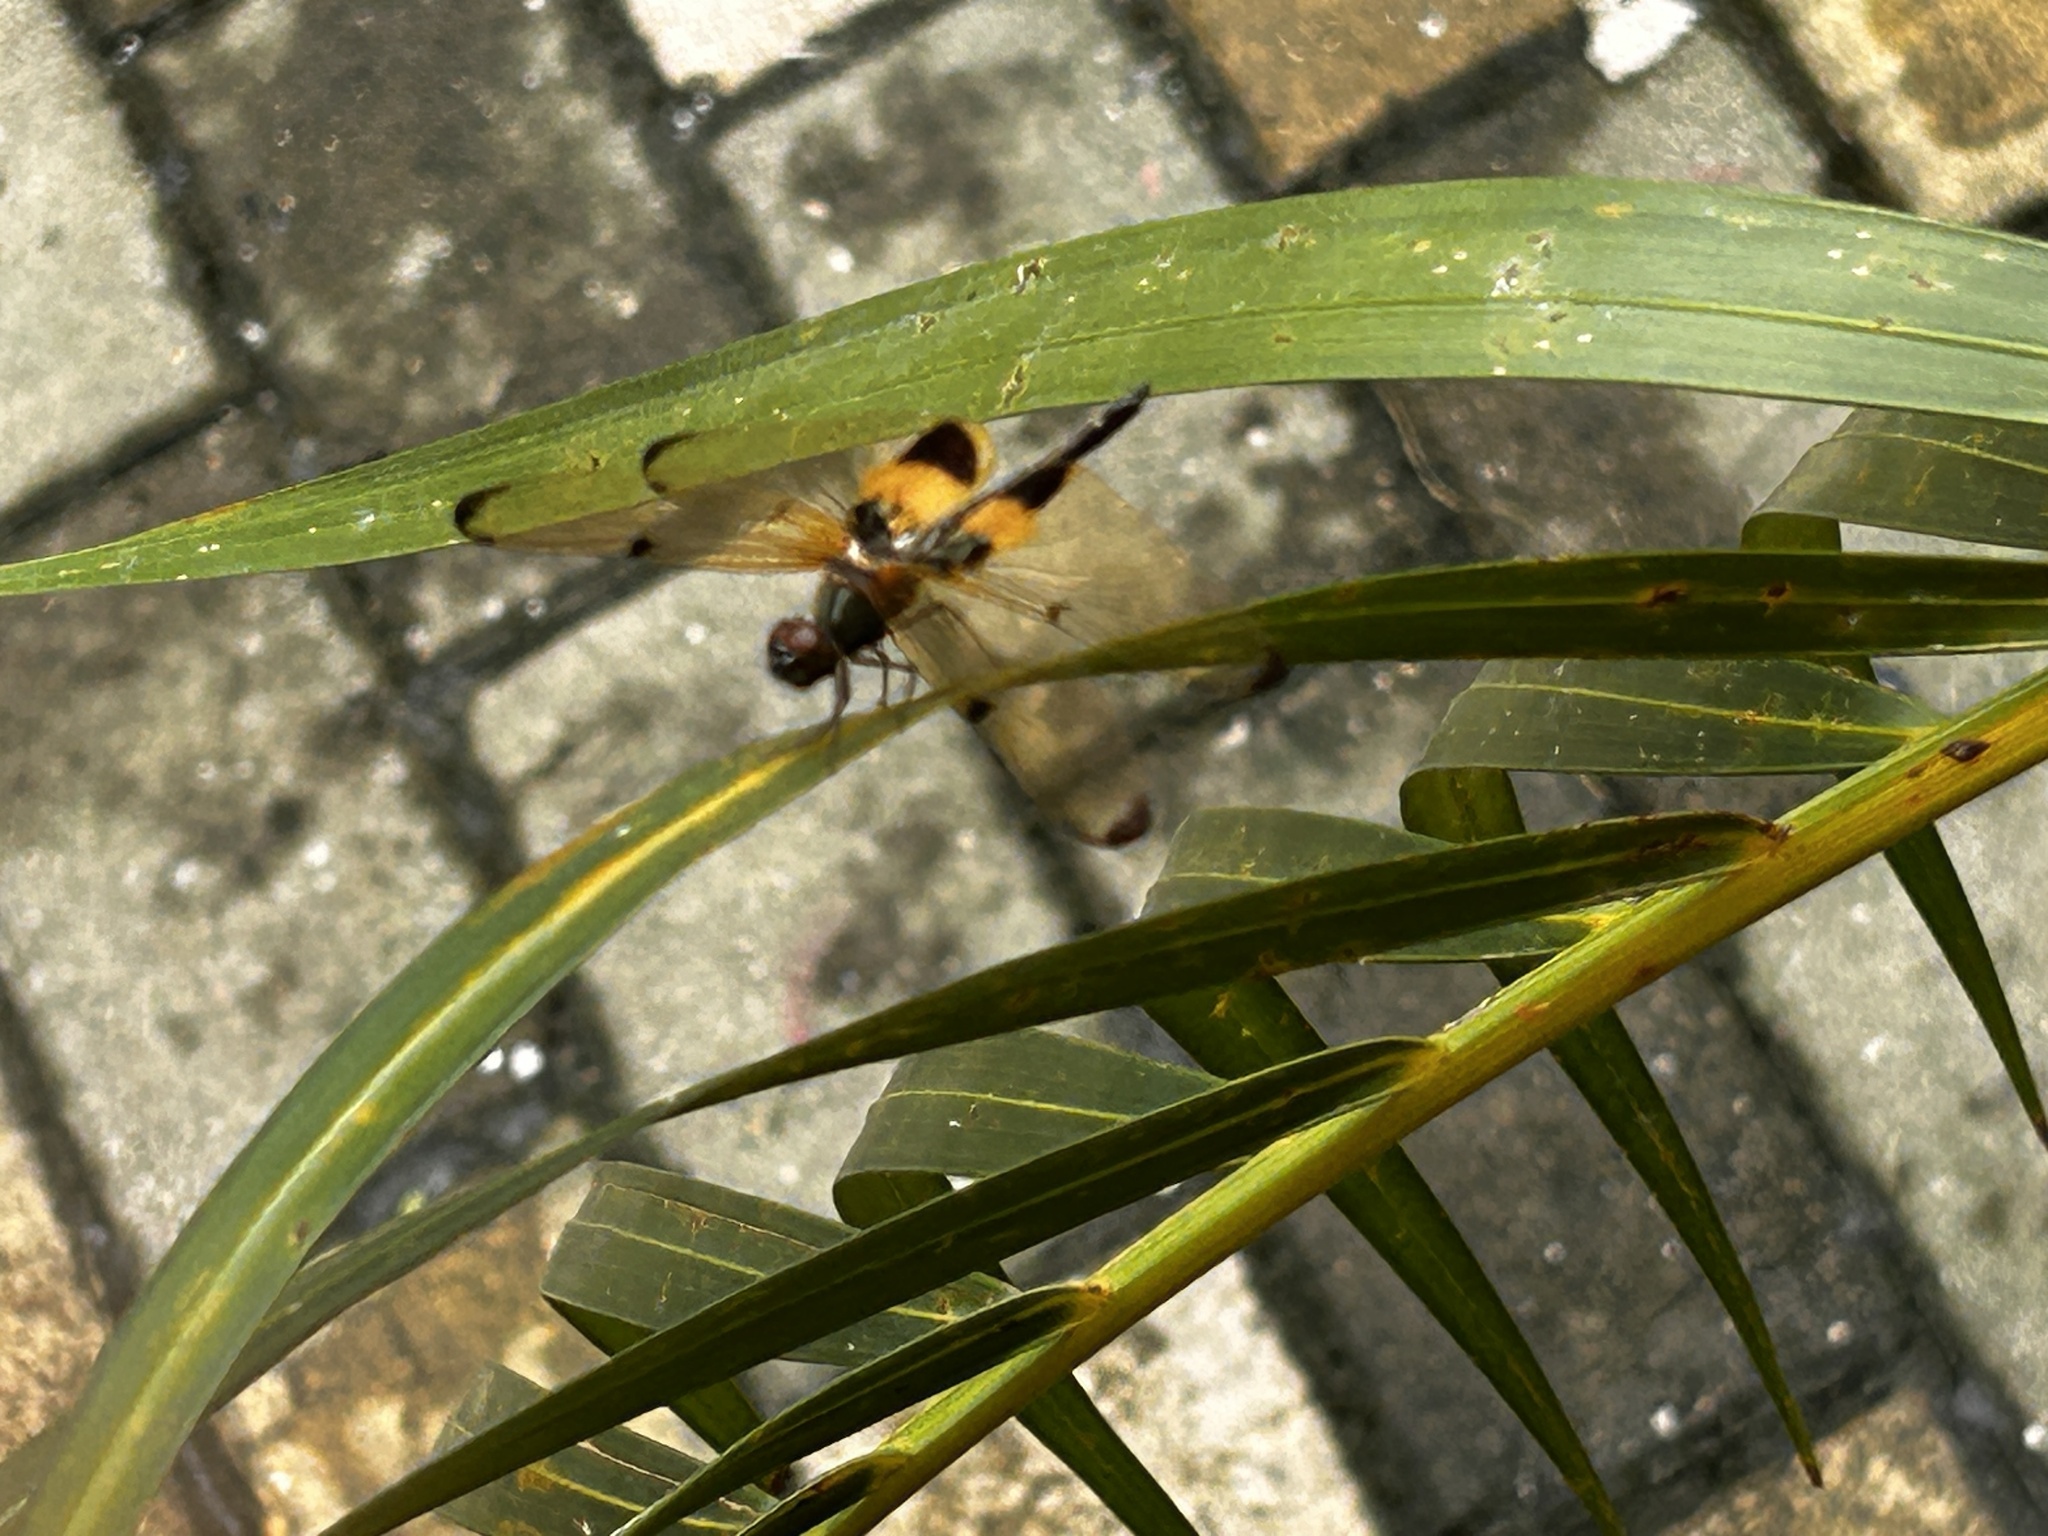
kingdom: Animalia
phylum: Arthropoda
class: Insecta
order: Odonata
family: Libellulidae
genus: Rhyothemis
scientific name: Rhyothemis phyllis
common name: Yellow-barred flutterer
